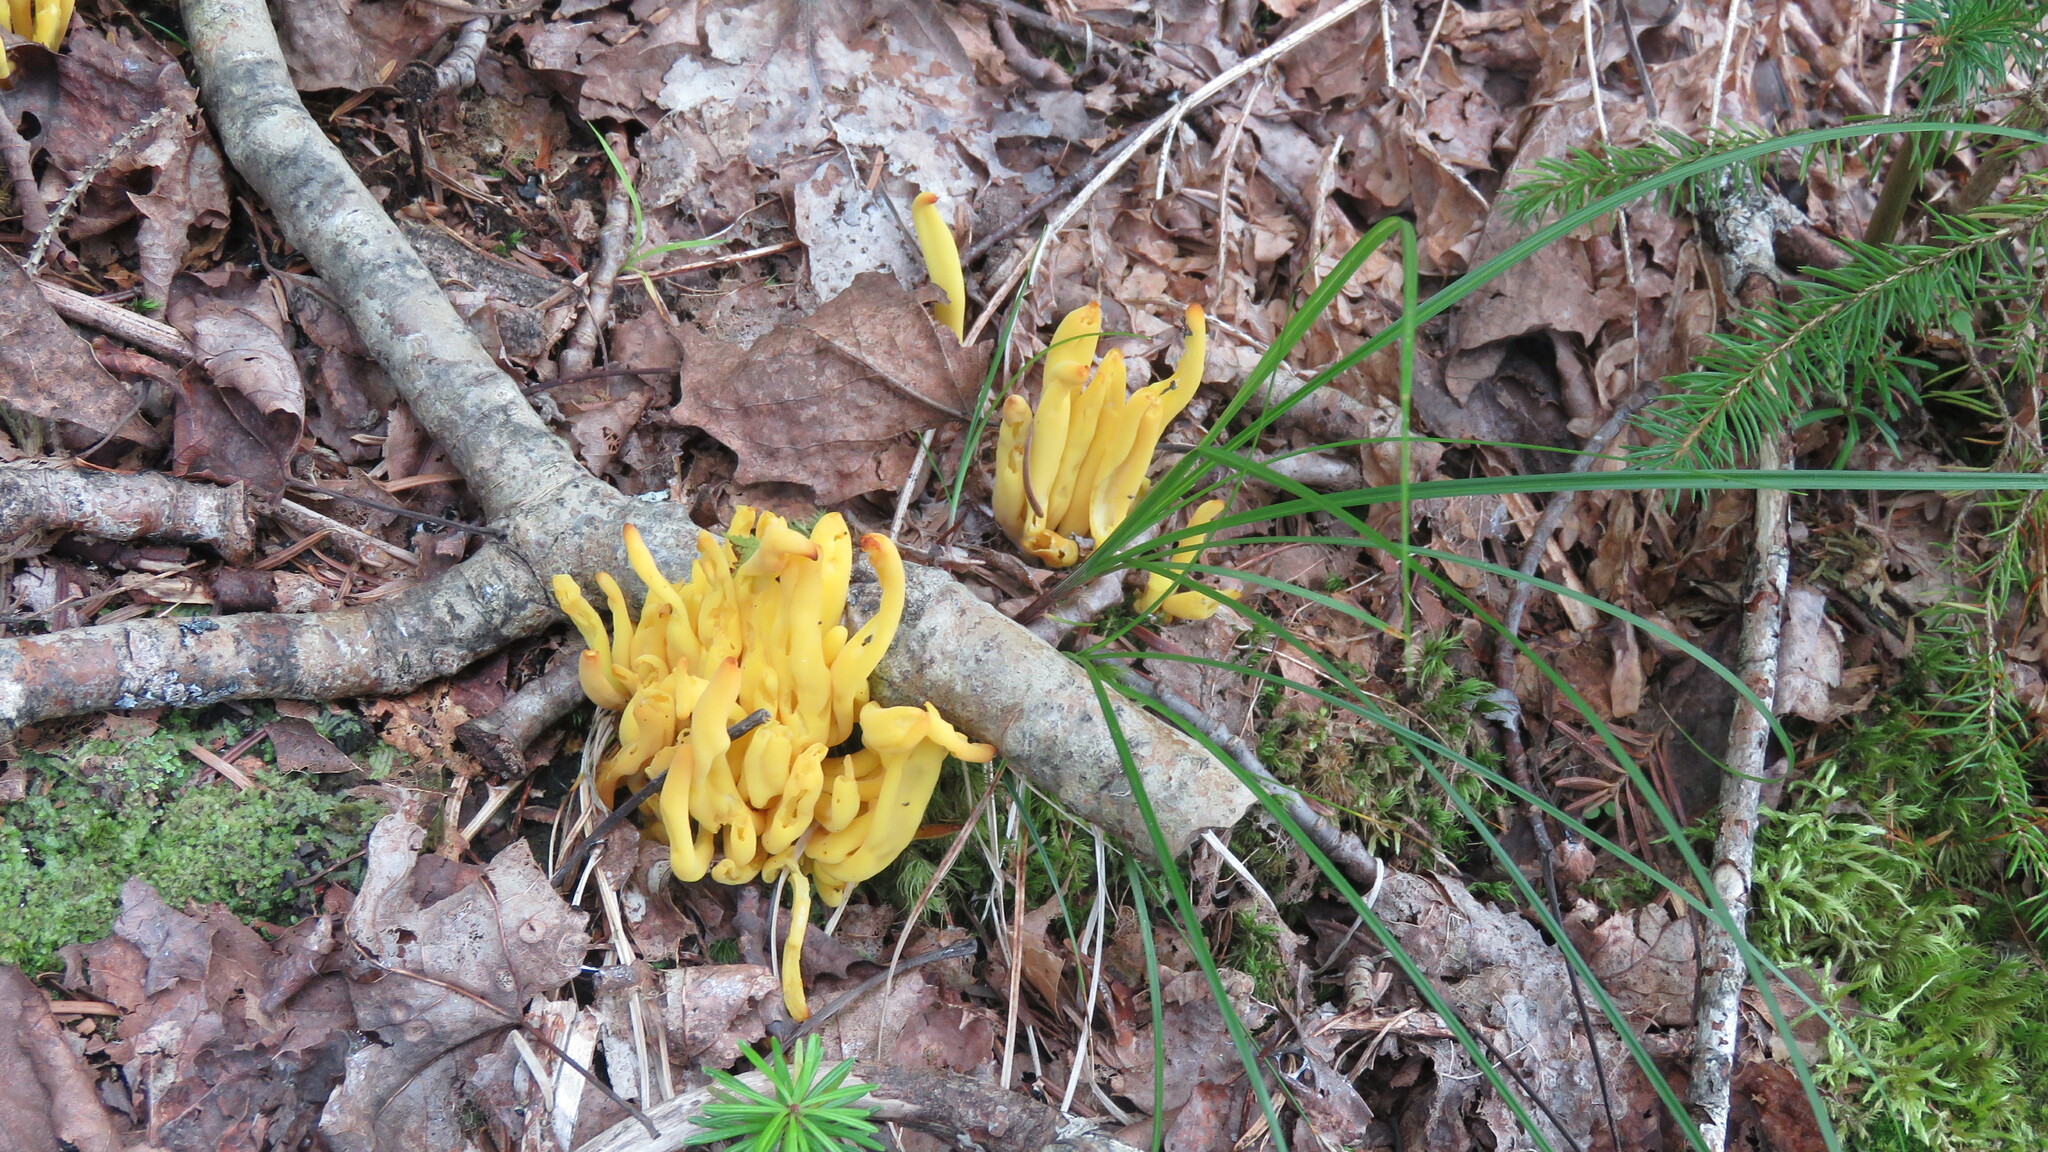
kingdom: Fungi
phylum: Basidiomycota
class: Agaricomycetes
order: Agaricales
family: Clavariaceae
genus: Clavulinopsis
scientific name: Clavulinopsis fusiformis
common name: Golden spindles
